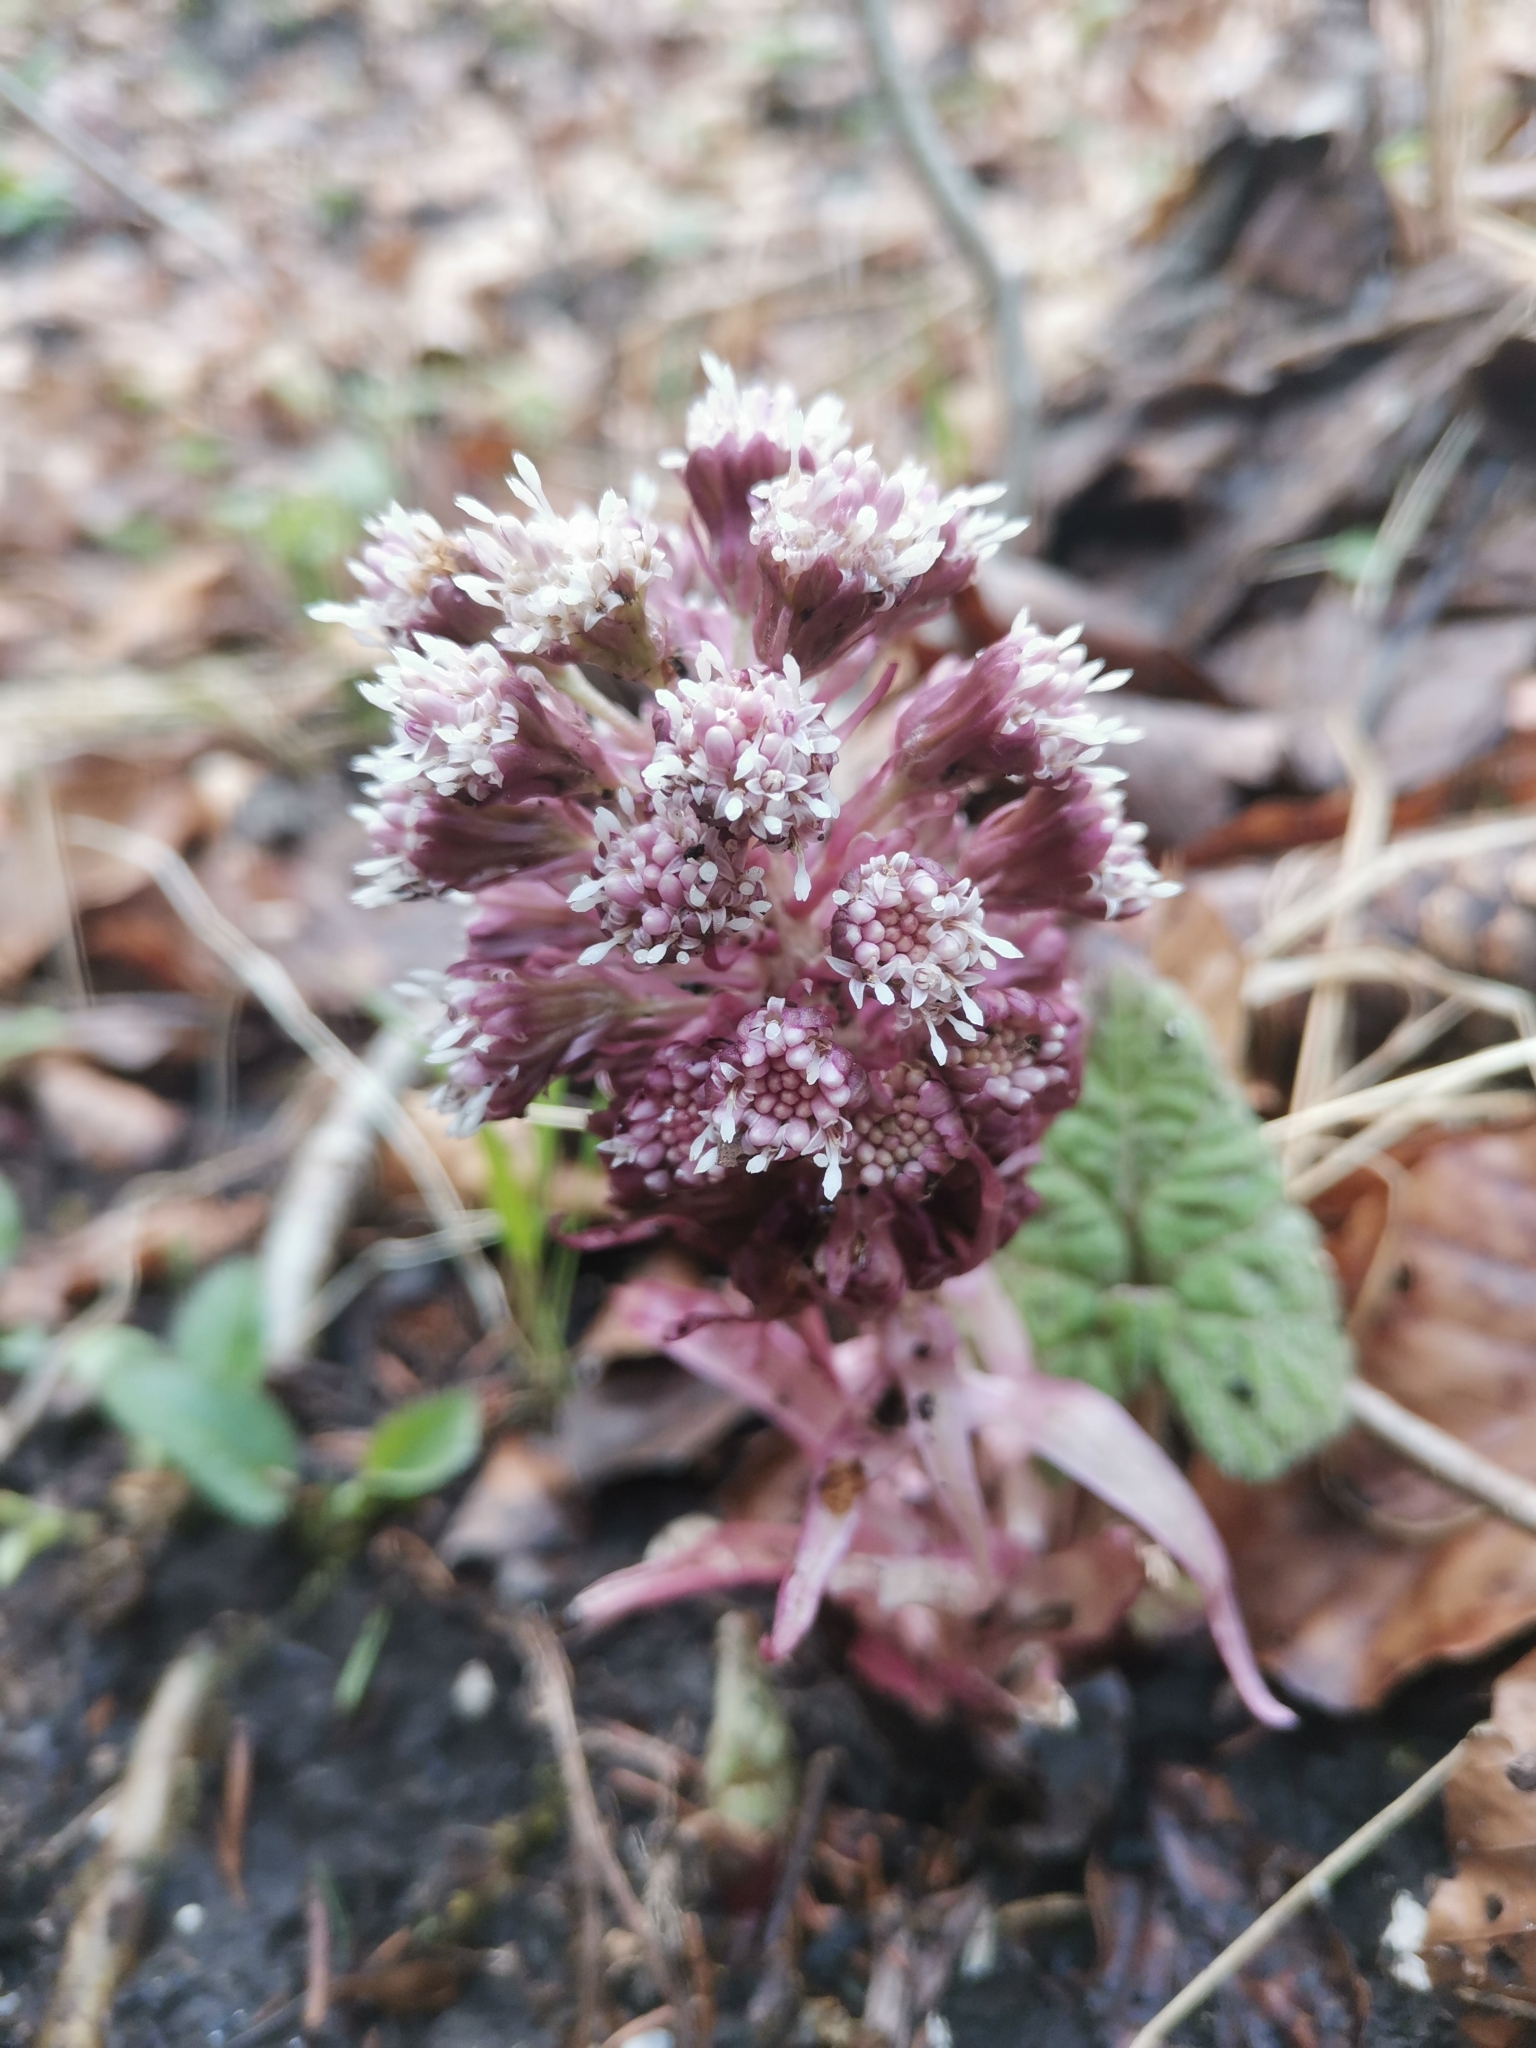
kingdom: Plantae
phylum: Tracheophyta
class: Magnoliopsida
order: Asterales
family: Asteraceae
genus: Petasites
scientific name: Petasites paradoxus
